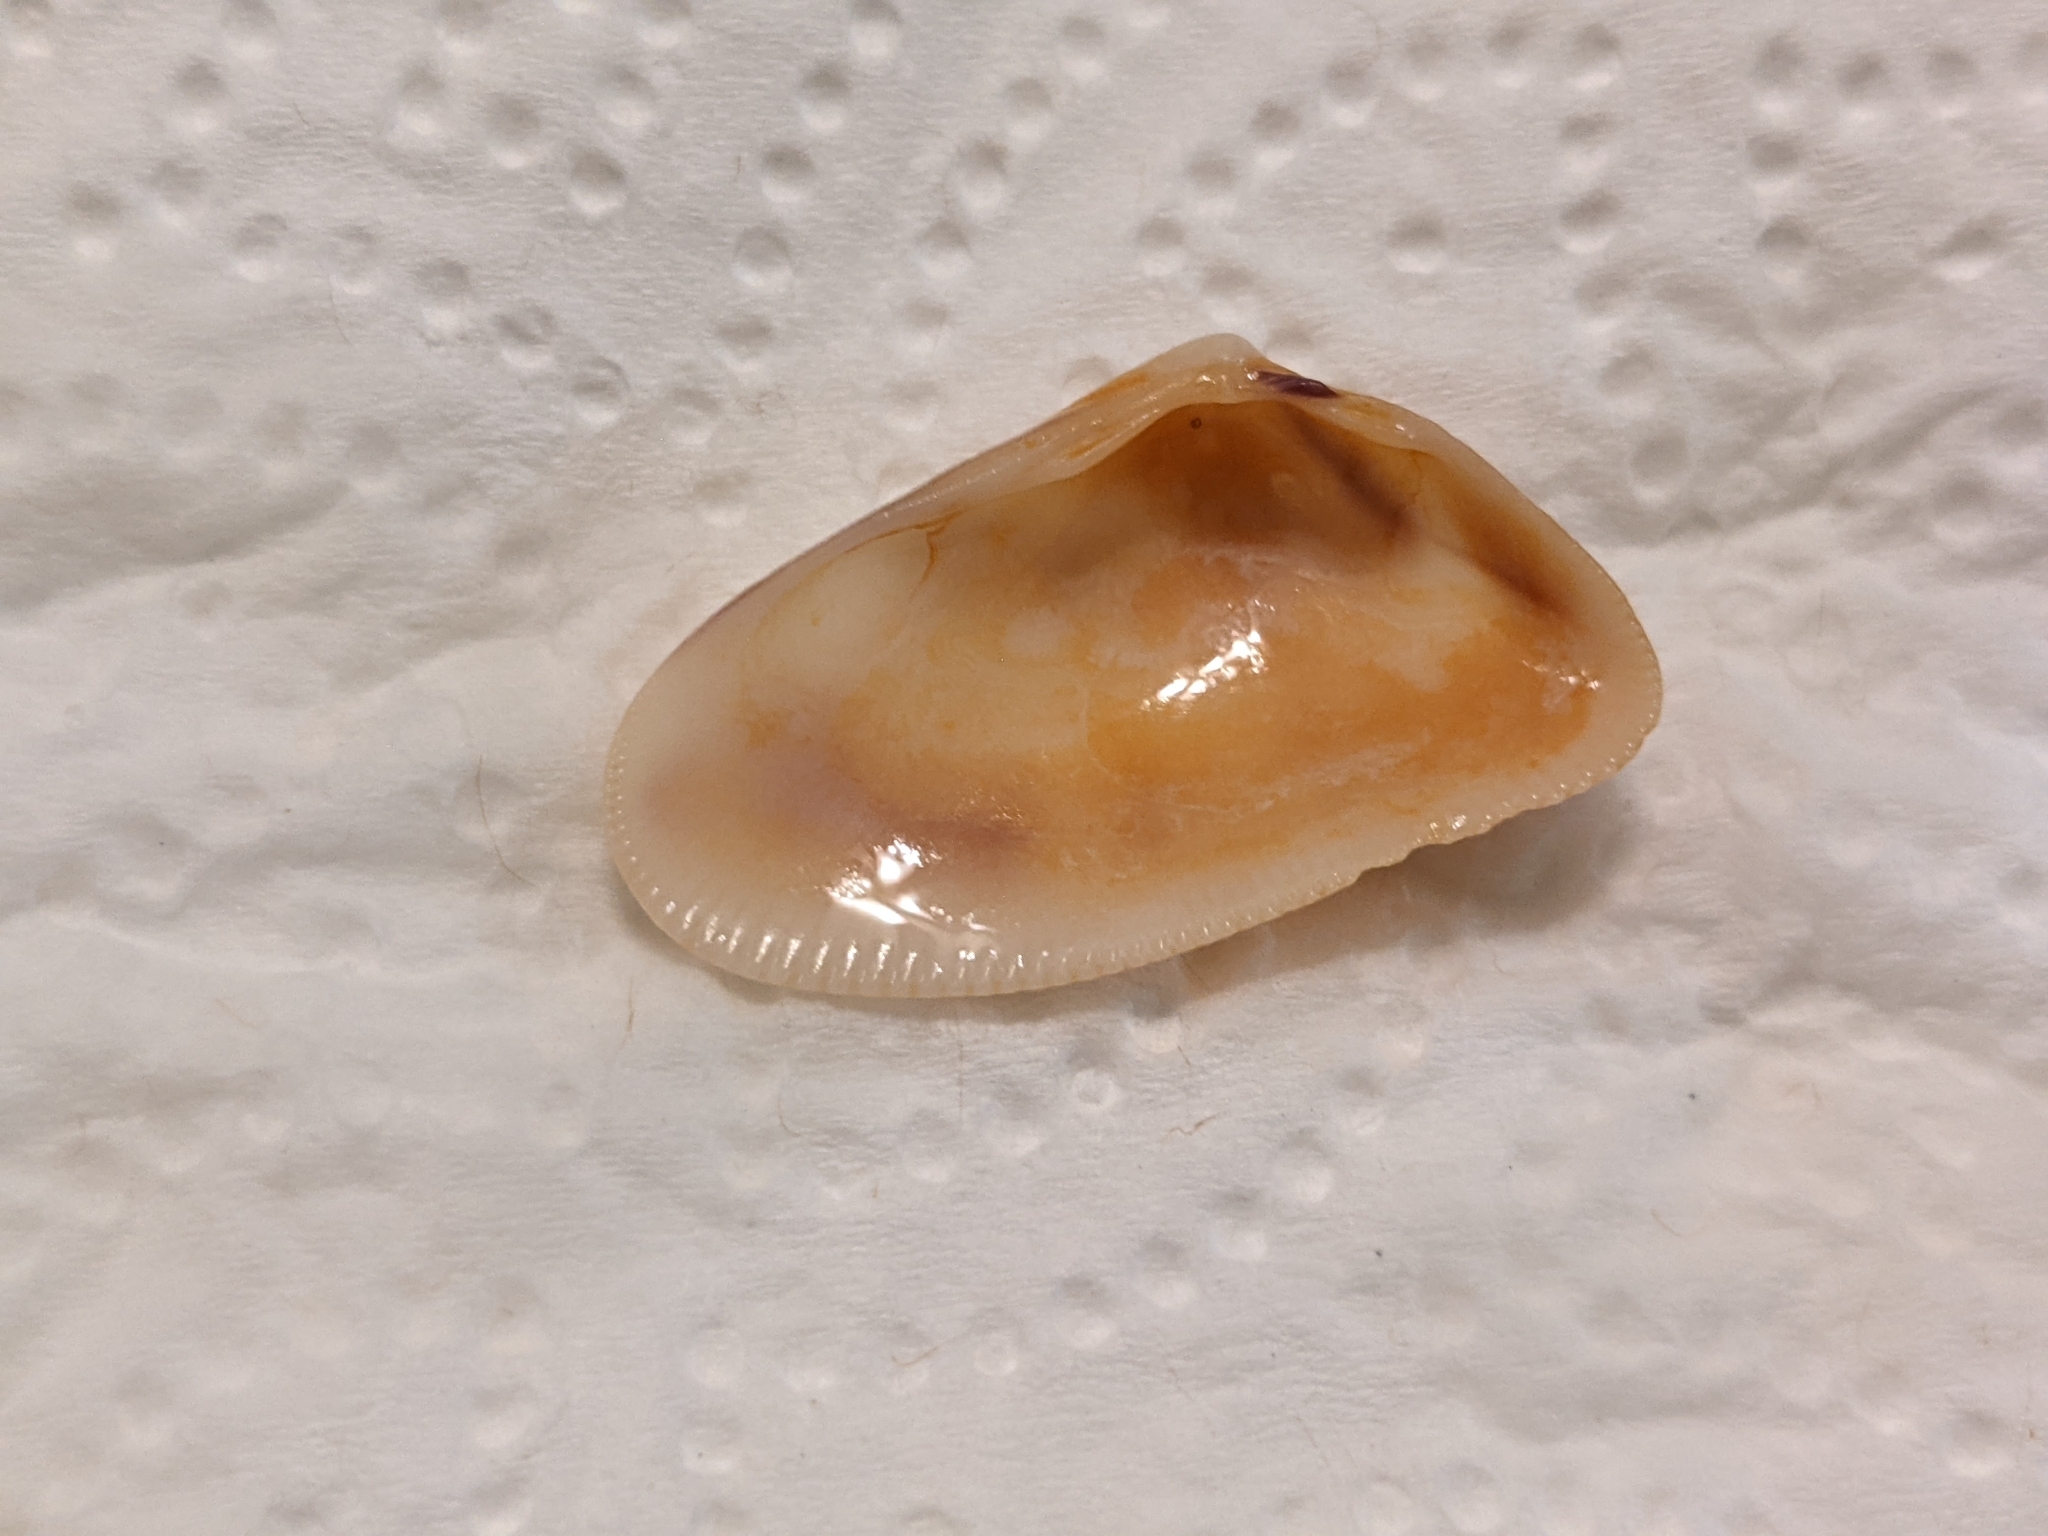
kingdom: Animalia
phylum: Mollusca
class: Bivalvia
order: Cardiida
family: Donacidae
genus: Donax
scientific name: Donax variabilis
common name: Butterfly shell
